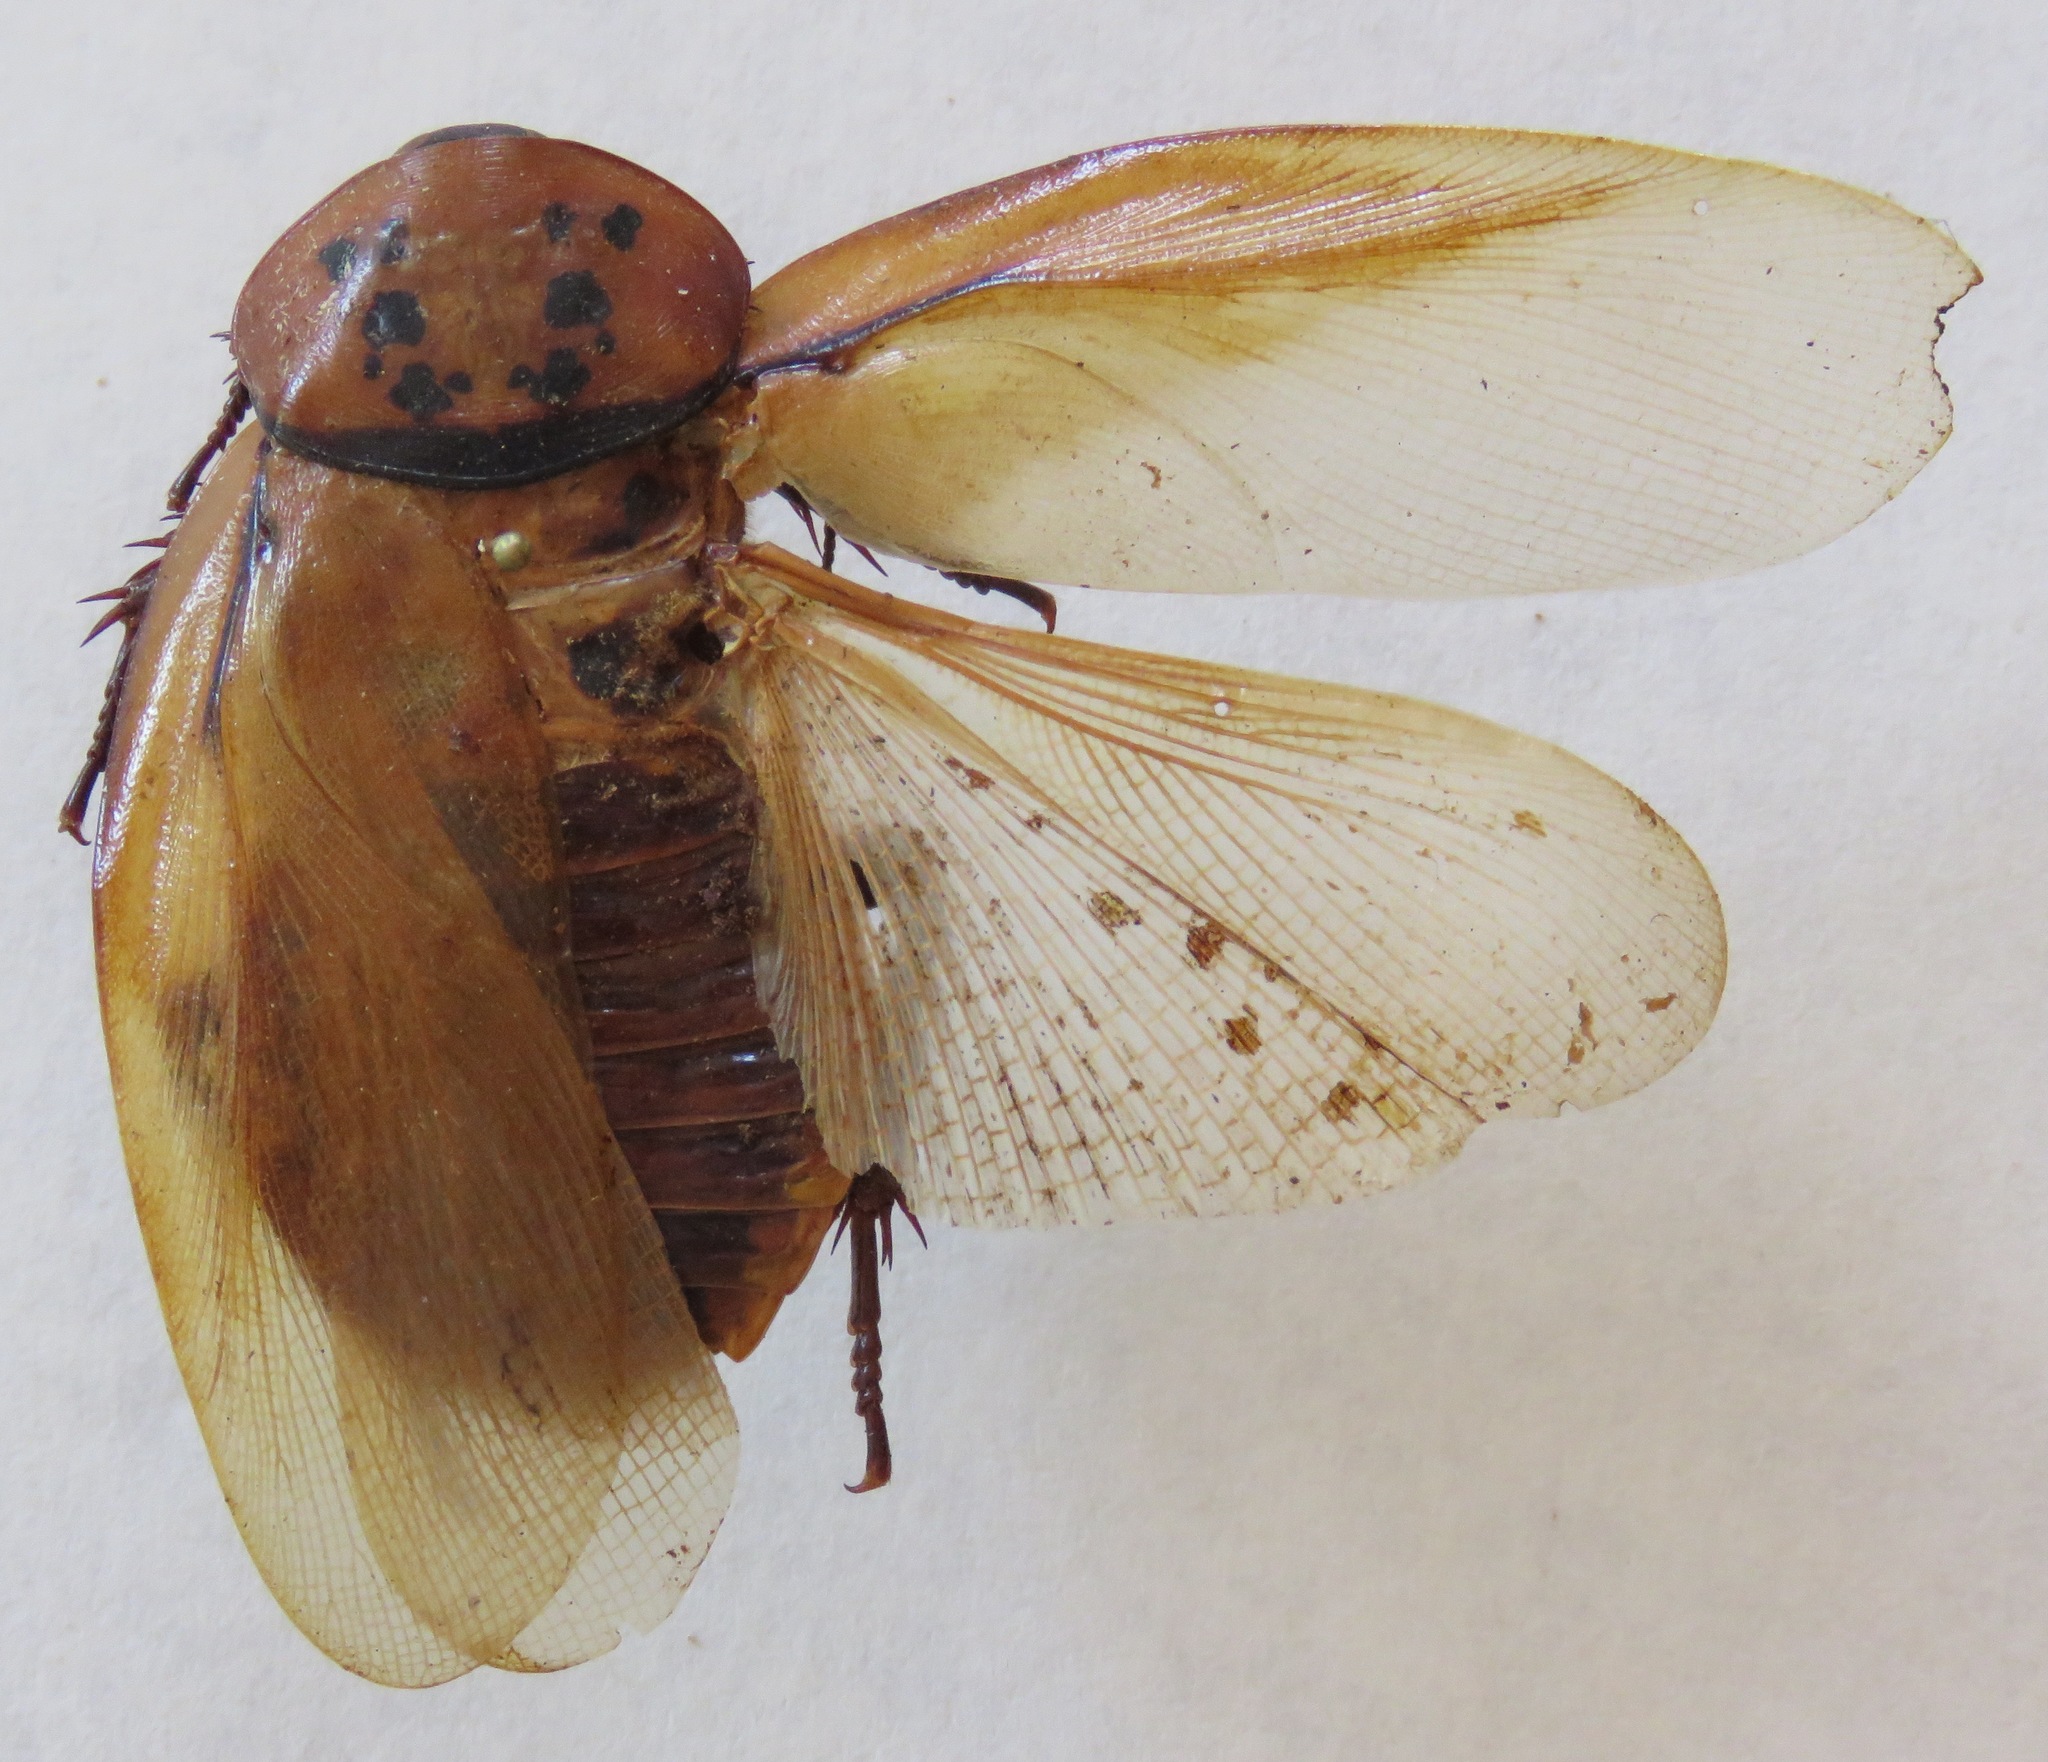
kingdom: Animalia
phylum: Arthropoda
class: Insecta
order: Blattodea
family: Blaberidae
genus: Eublaberus
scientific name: Eublaberus distanti
